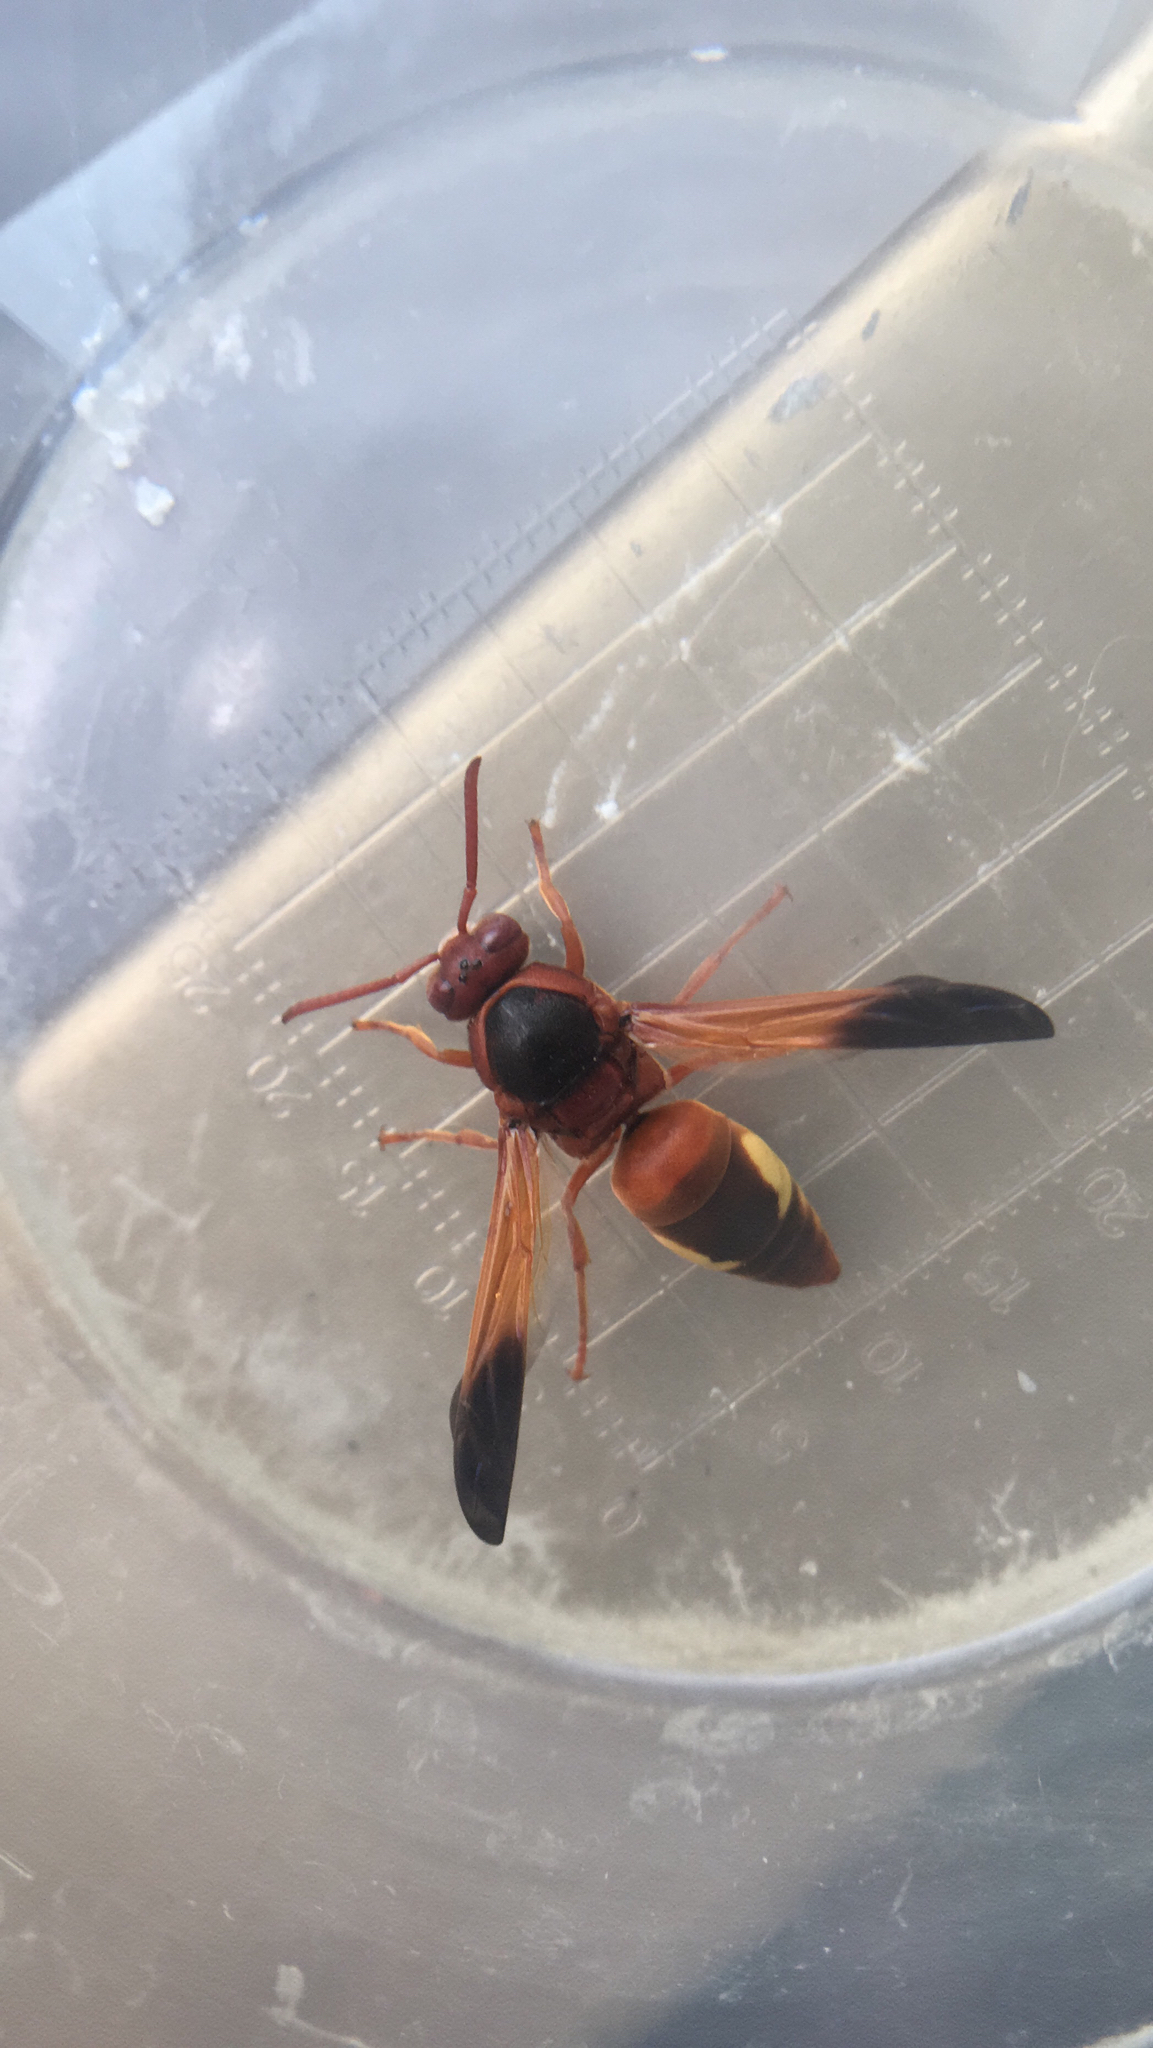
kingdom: Animalia
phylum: Arthropoda
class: Insecta
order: Hymenoptera
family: Eumenidae
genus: Rhynchium
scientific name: Rhynchium oculatum
